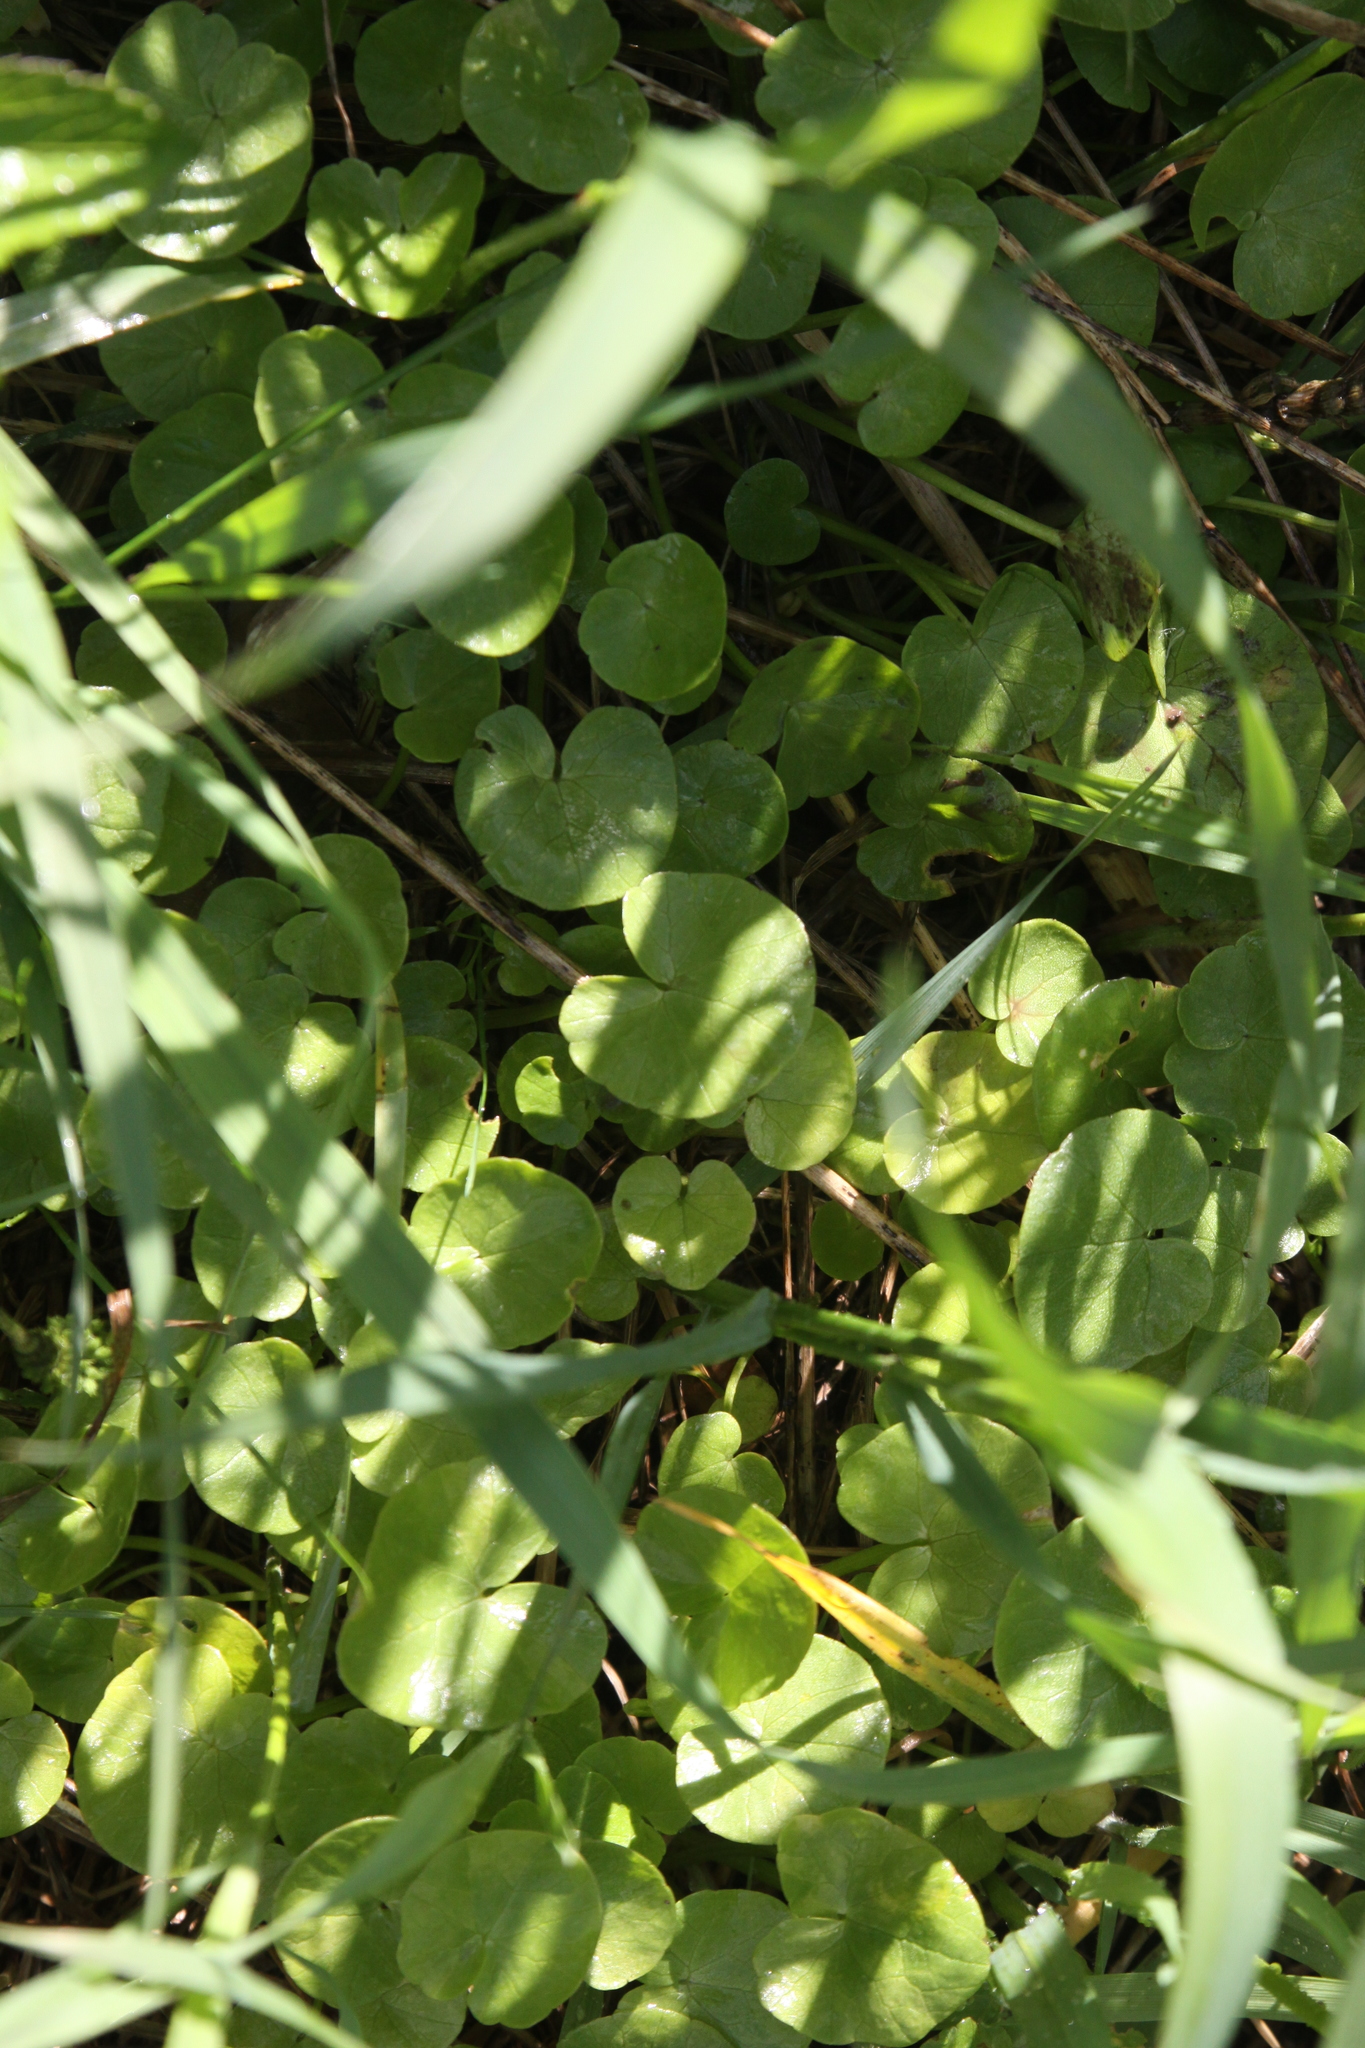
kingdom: Plantae
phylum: Tracheophyta
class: Magnoliopsida
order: Ranunculales
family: Ranunculaceae
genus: Ficaria
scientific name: Ficaria verna
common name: Lesser celandine
